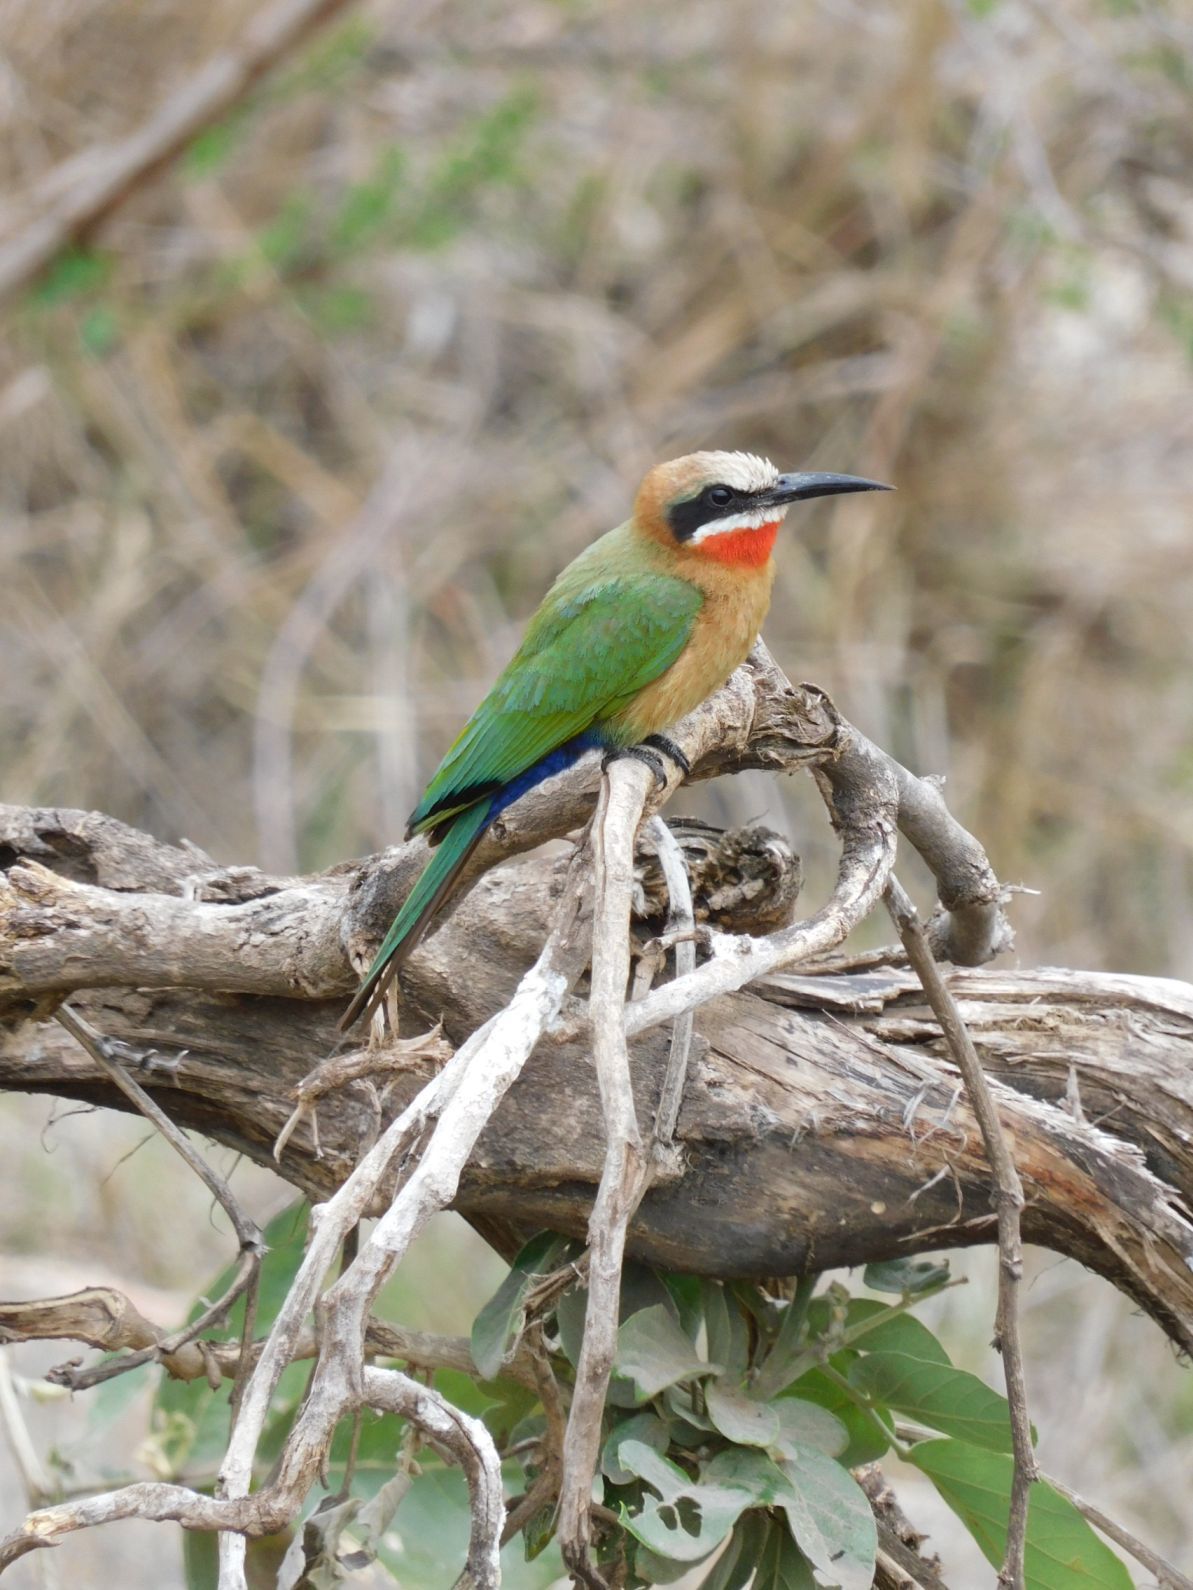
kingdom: Animalia
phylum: Chordata
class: Aves
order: Coraciiformes
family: Meropidae
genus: Merops
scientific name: Merops bullockoides
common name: White-fronted bee-eater
